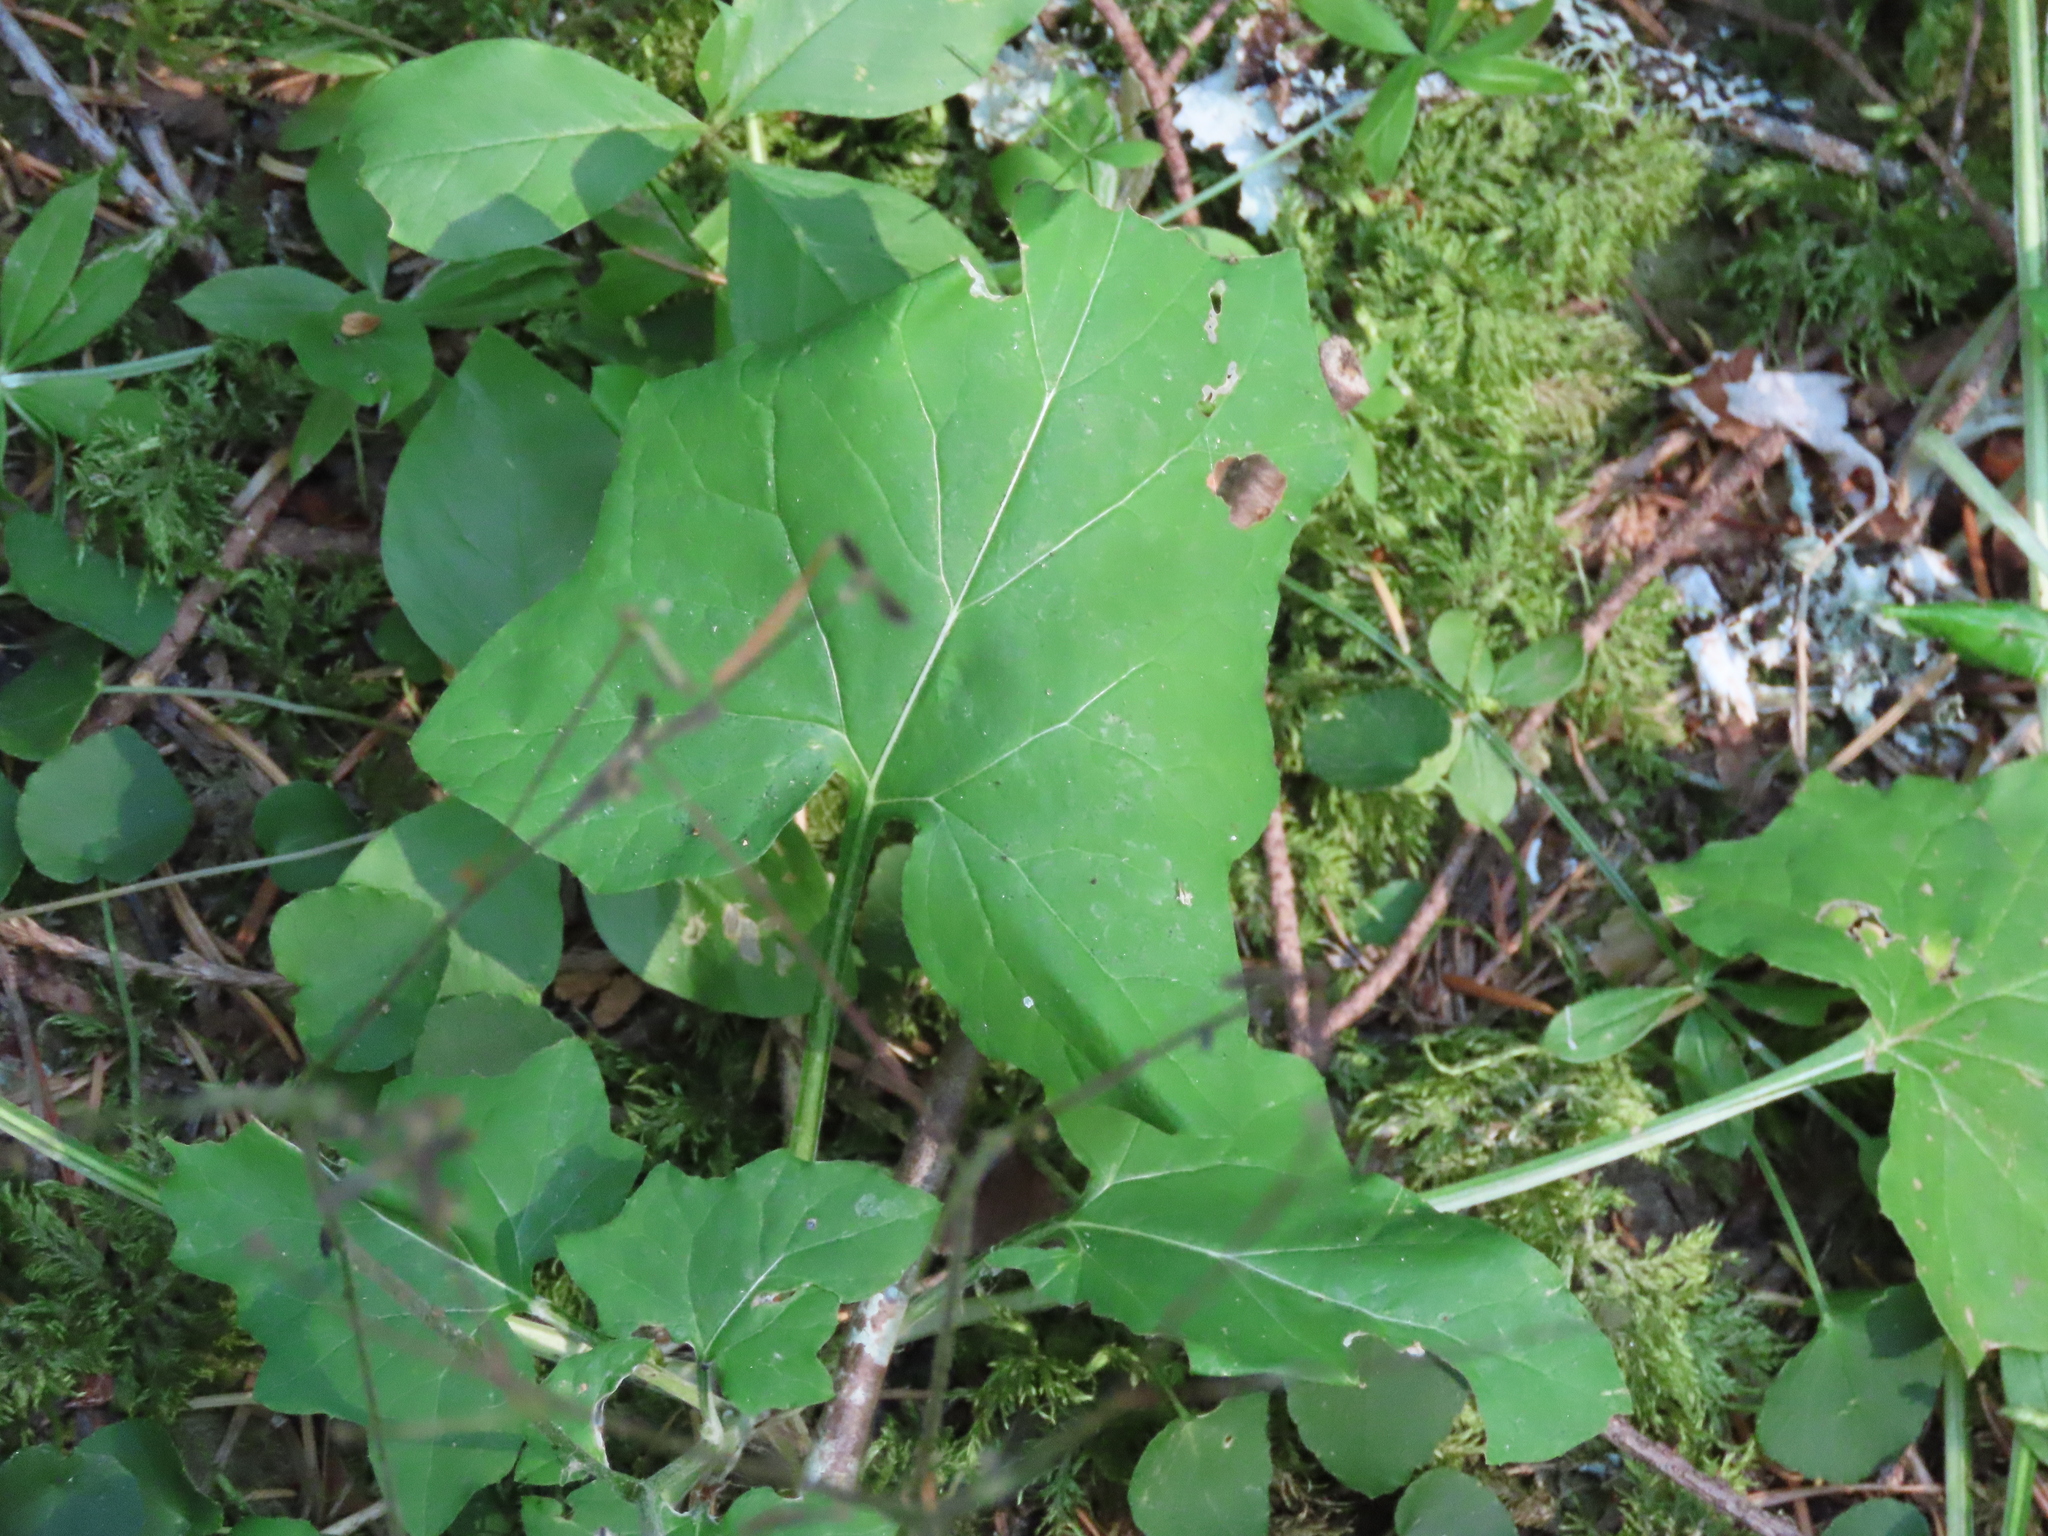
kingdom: Plantae
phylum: Tracheophyta
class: Magnoliopsida
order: Asterales
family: Asteraceae
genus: Adenocaulon
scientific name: Adenocaulon bicolor
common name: Trailplant
